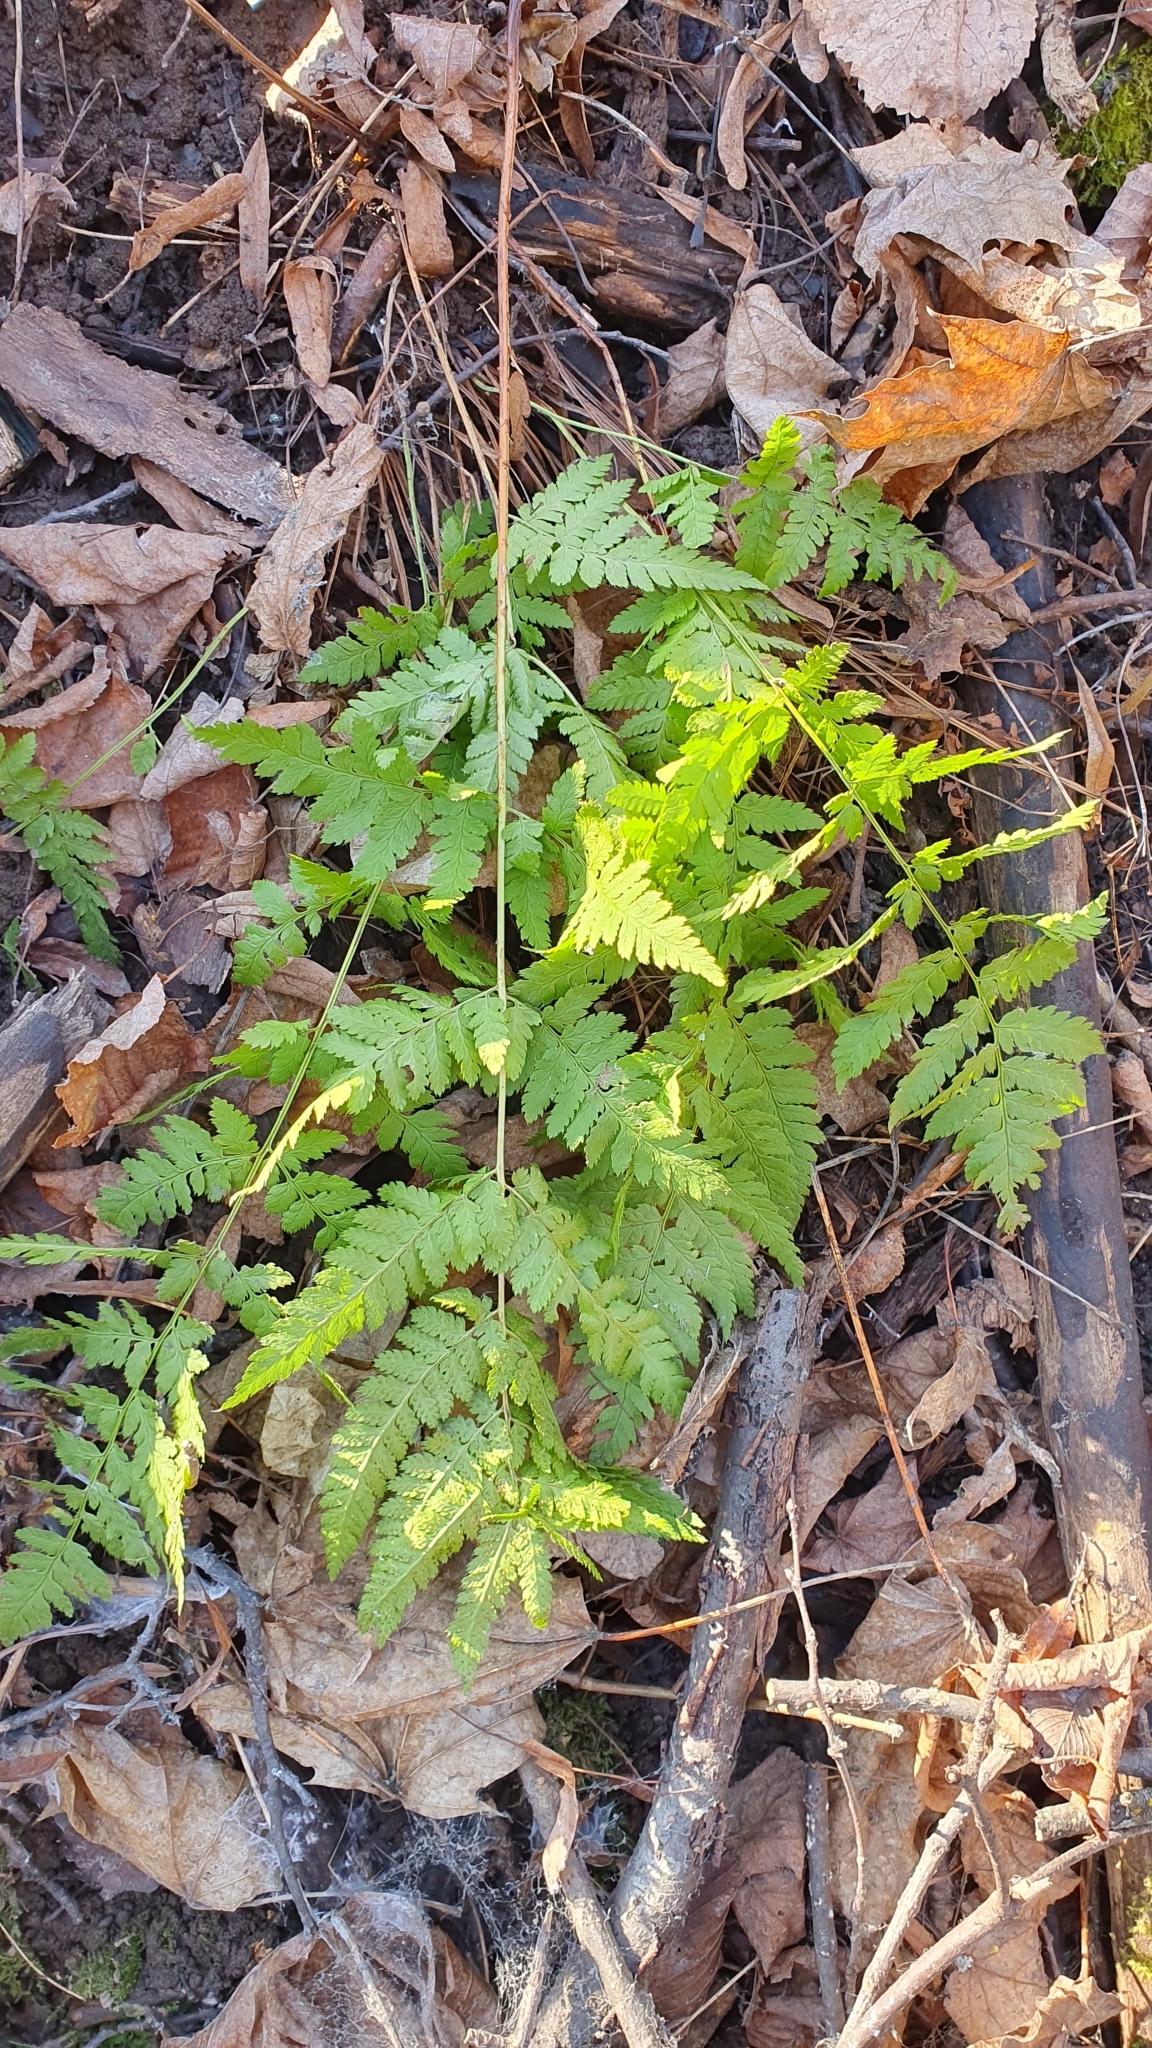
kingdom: Plantae
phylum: Tracheophyta
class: Polypodiopsida
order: Polypodiales
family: Dryopteridaceae
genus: Dryopteris
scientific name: Dryopteris carthusiana
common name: Narrow buckler-fern
